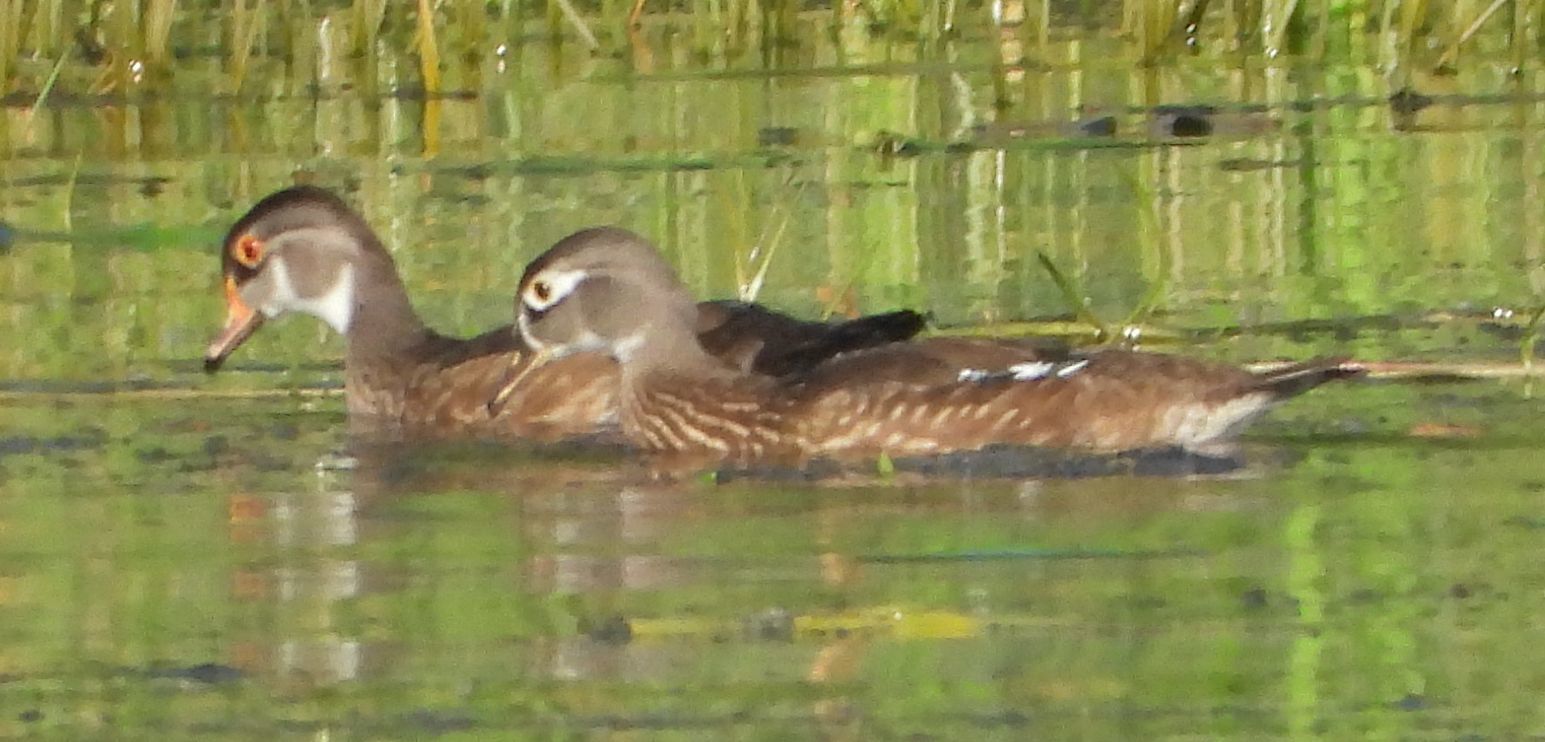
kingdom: Animalia
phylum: Chordata
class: Aves
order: Anseriformes
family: Anatidae
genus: Aix
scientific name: Aix sponsa
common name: Wood duck
